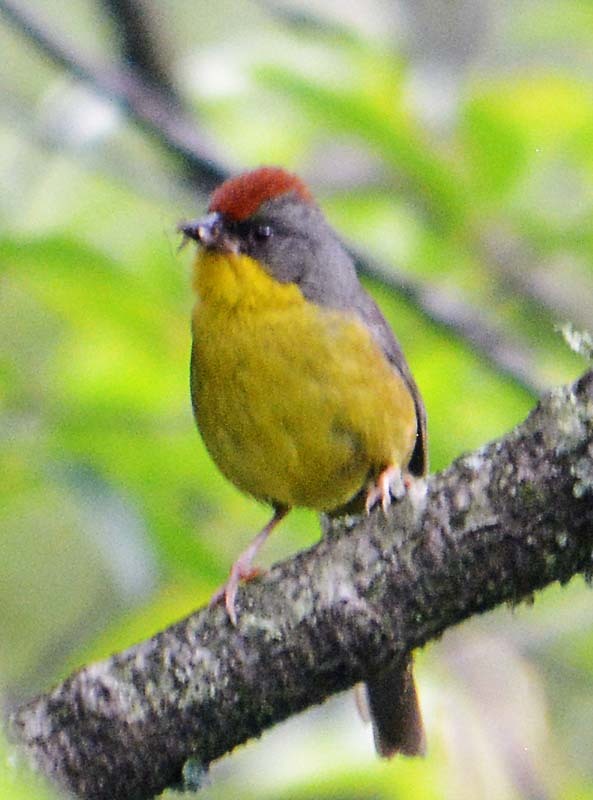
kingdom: Animalia
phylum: Chordata
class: Aves
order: Passeriformes
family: Passerellidae
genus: Atlapetes
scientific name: Atlapetes pileatus
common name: Rufous-capped brush-finch
